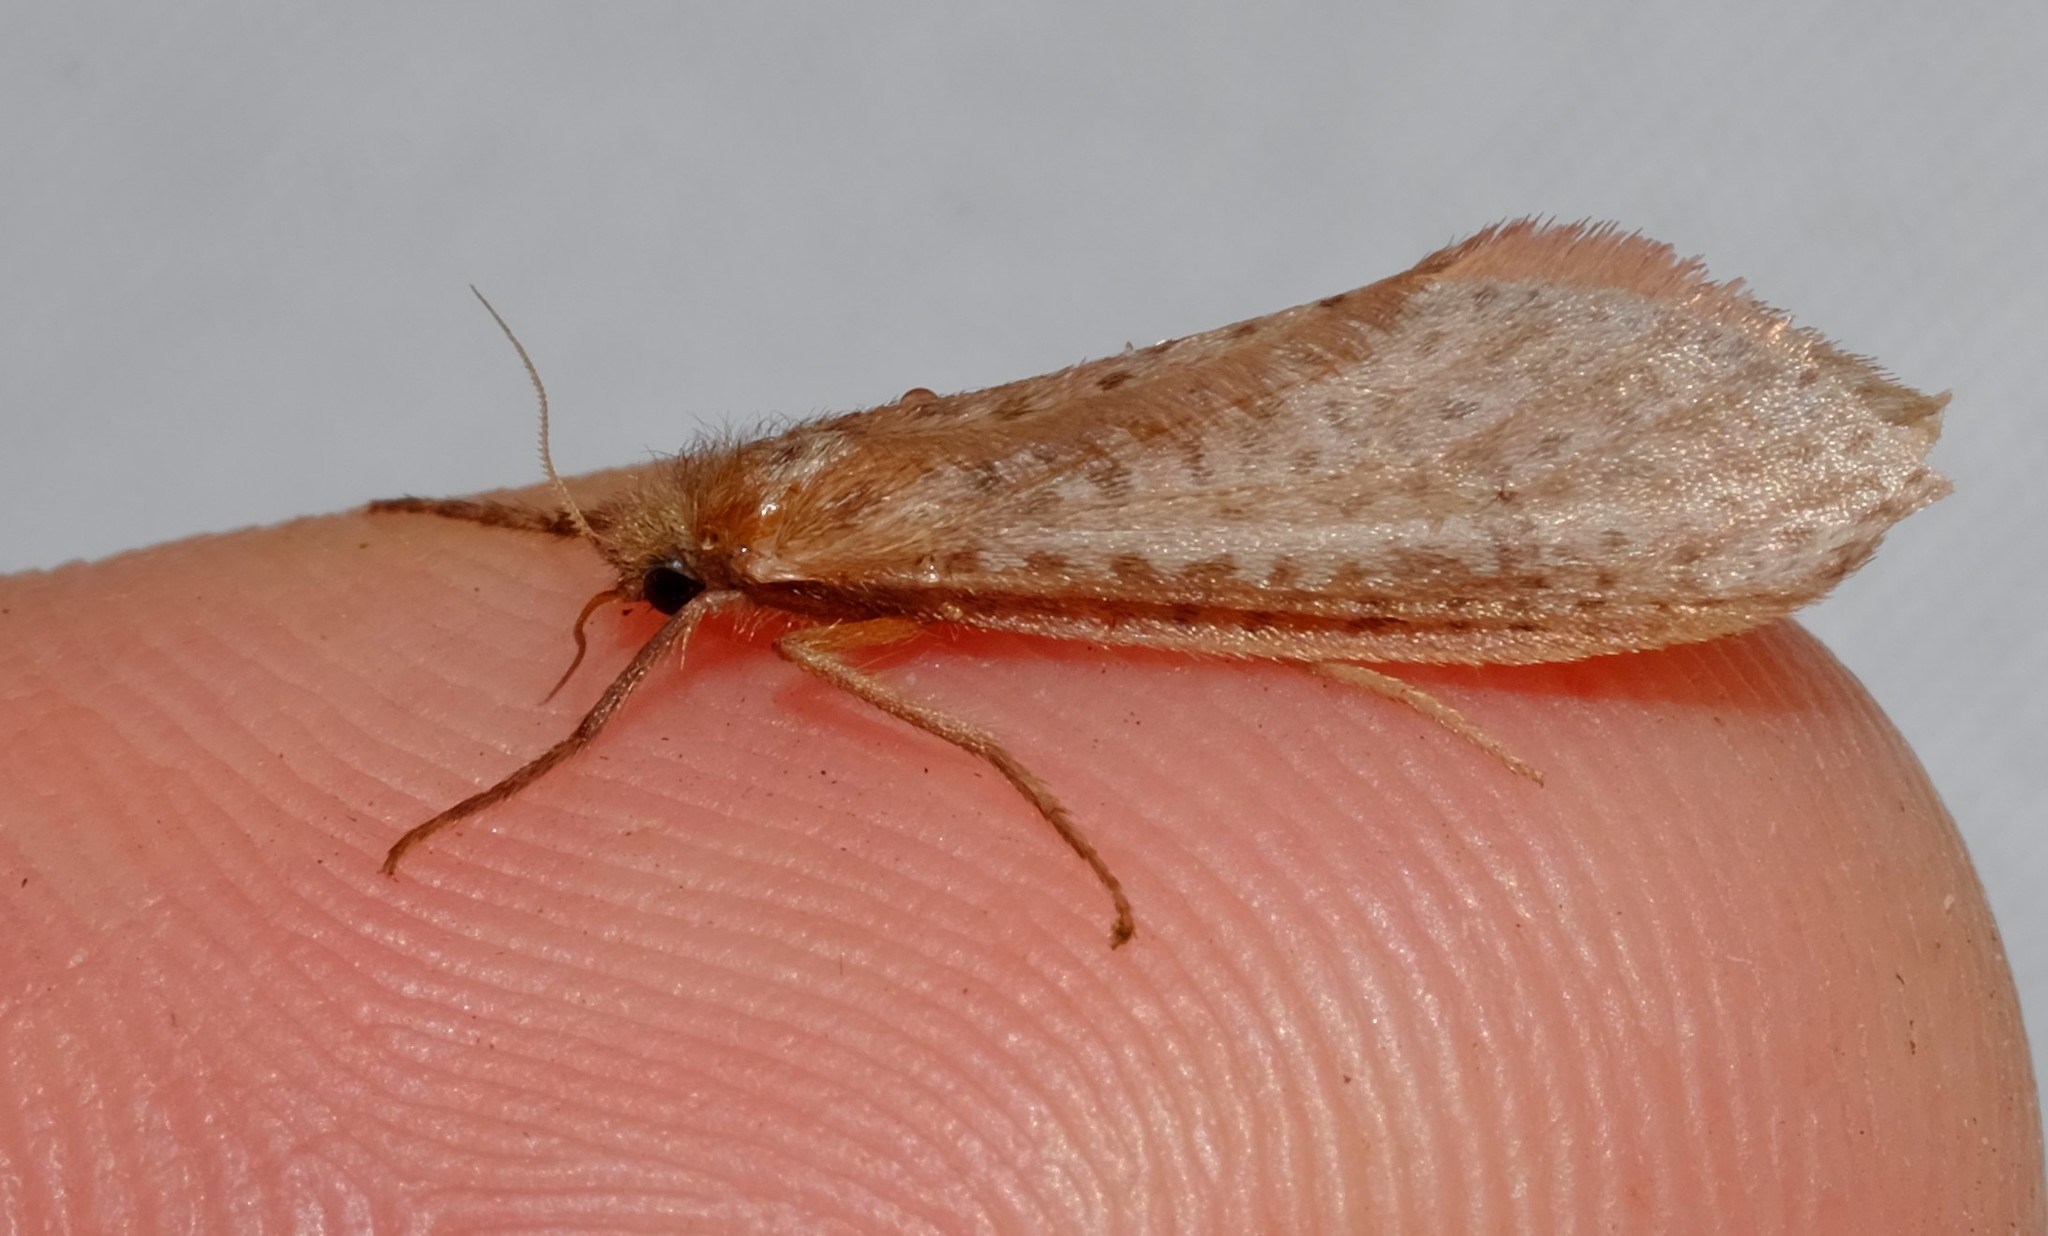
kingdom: Animalia
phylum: Arthropoda
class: Insecta
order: Lepidoptera
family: Hepialidae
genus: Fraus
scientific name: Fraus nanus
